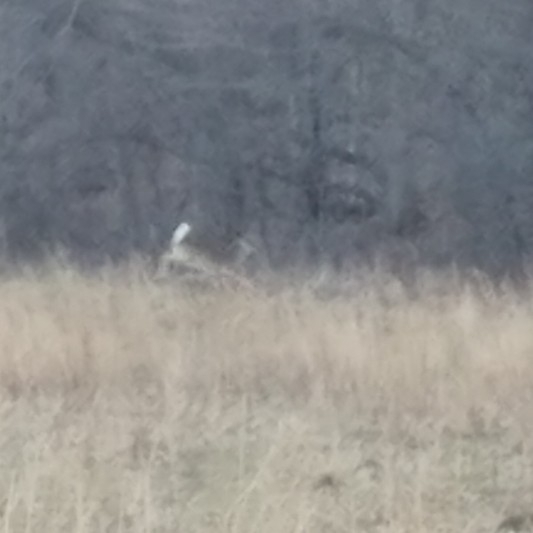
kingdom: Animalia
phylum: Chordata
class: Mammalia
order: Artiodactyla
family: Cervidae
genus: Odocoileus
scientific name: Odocoileus virginianus
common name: White-tailed deer
